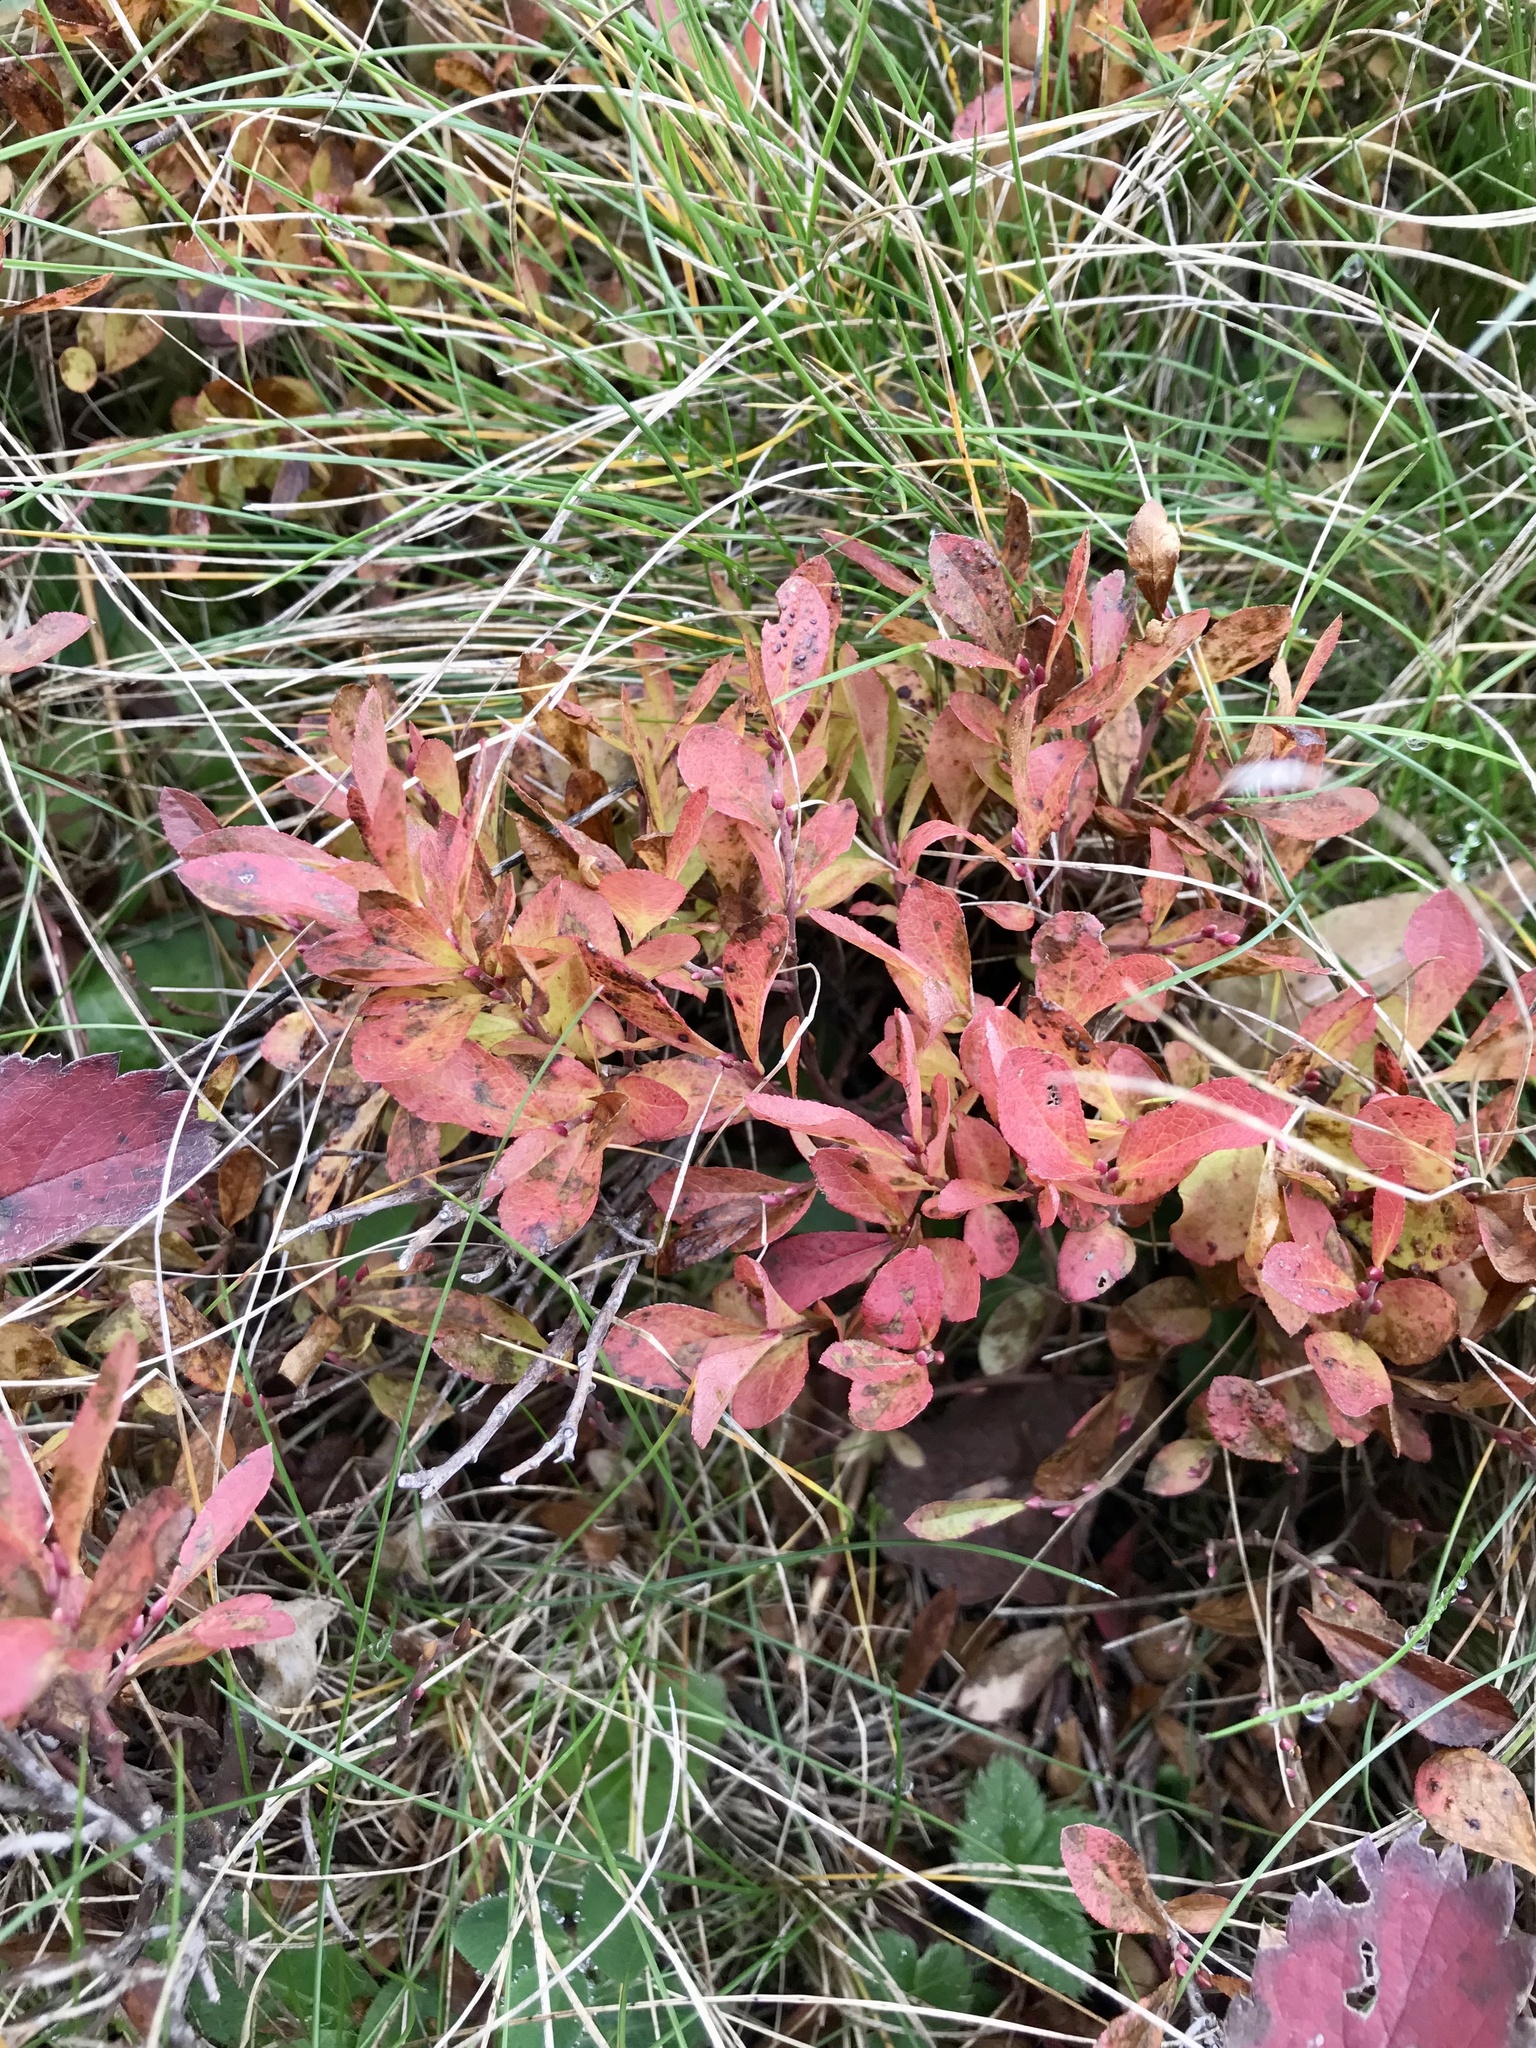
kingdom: Plantae
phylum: Tracheophyta
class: Magnoliopsida
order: Ericales
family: Ericaceae
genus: Vaccinium
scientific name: Vaccinium cespitosum
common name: Dwarf bilberry
